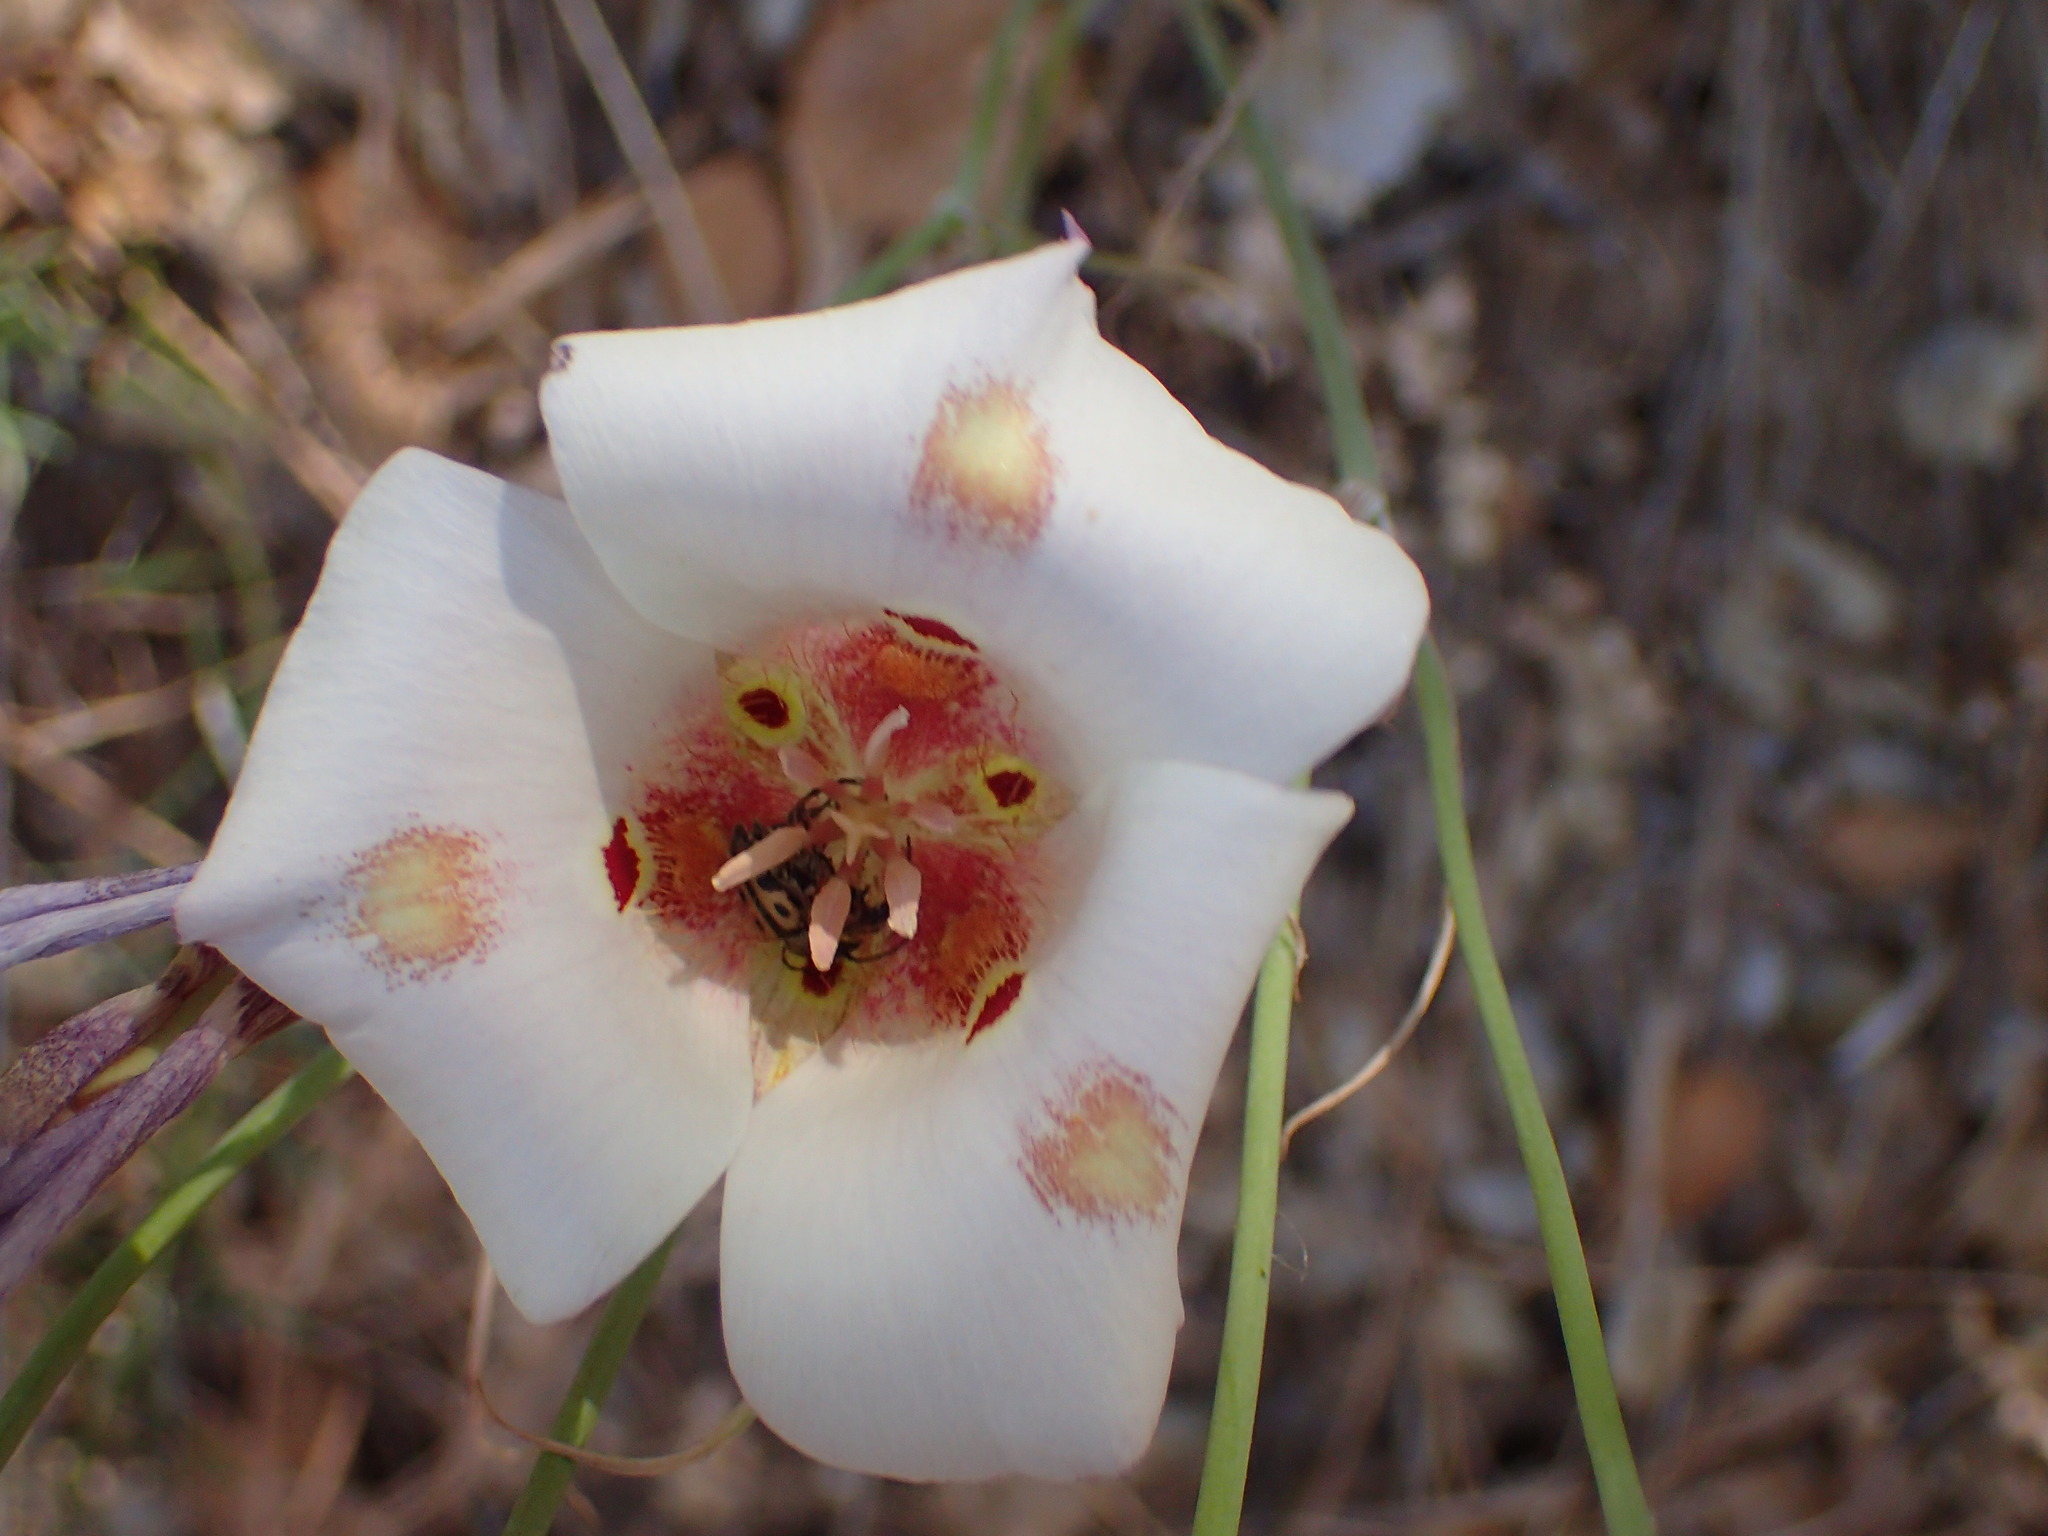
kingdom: Plantae
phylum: Tracheophyta
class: Liliopsida
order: Liliales
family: Liliaceae
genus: Calochortus
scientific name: Calochortus venustus
